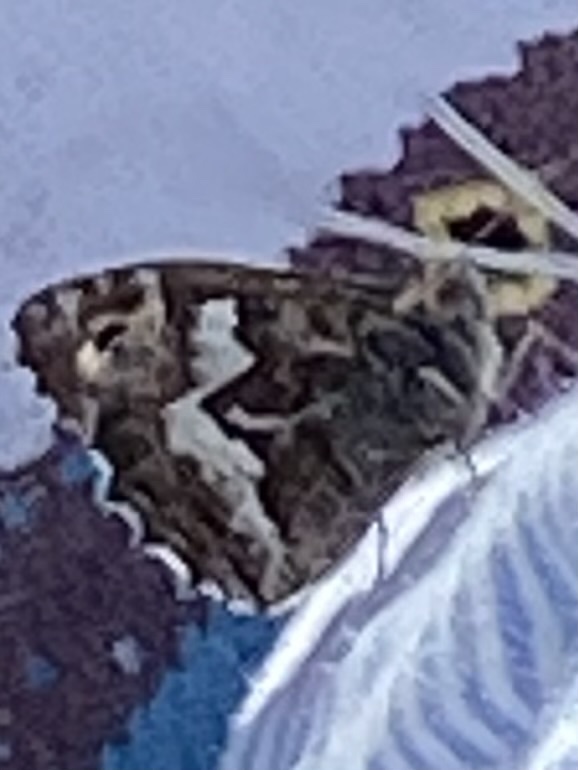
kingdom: Animalia
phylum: Arthropoda
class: Insecta
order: Lepidoptera
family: Nymphalidae
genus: Hipparchia
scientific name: Hipparchia semele
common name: Grayling
